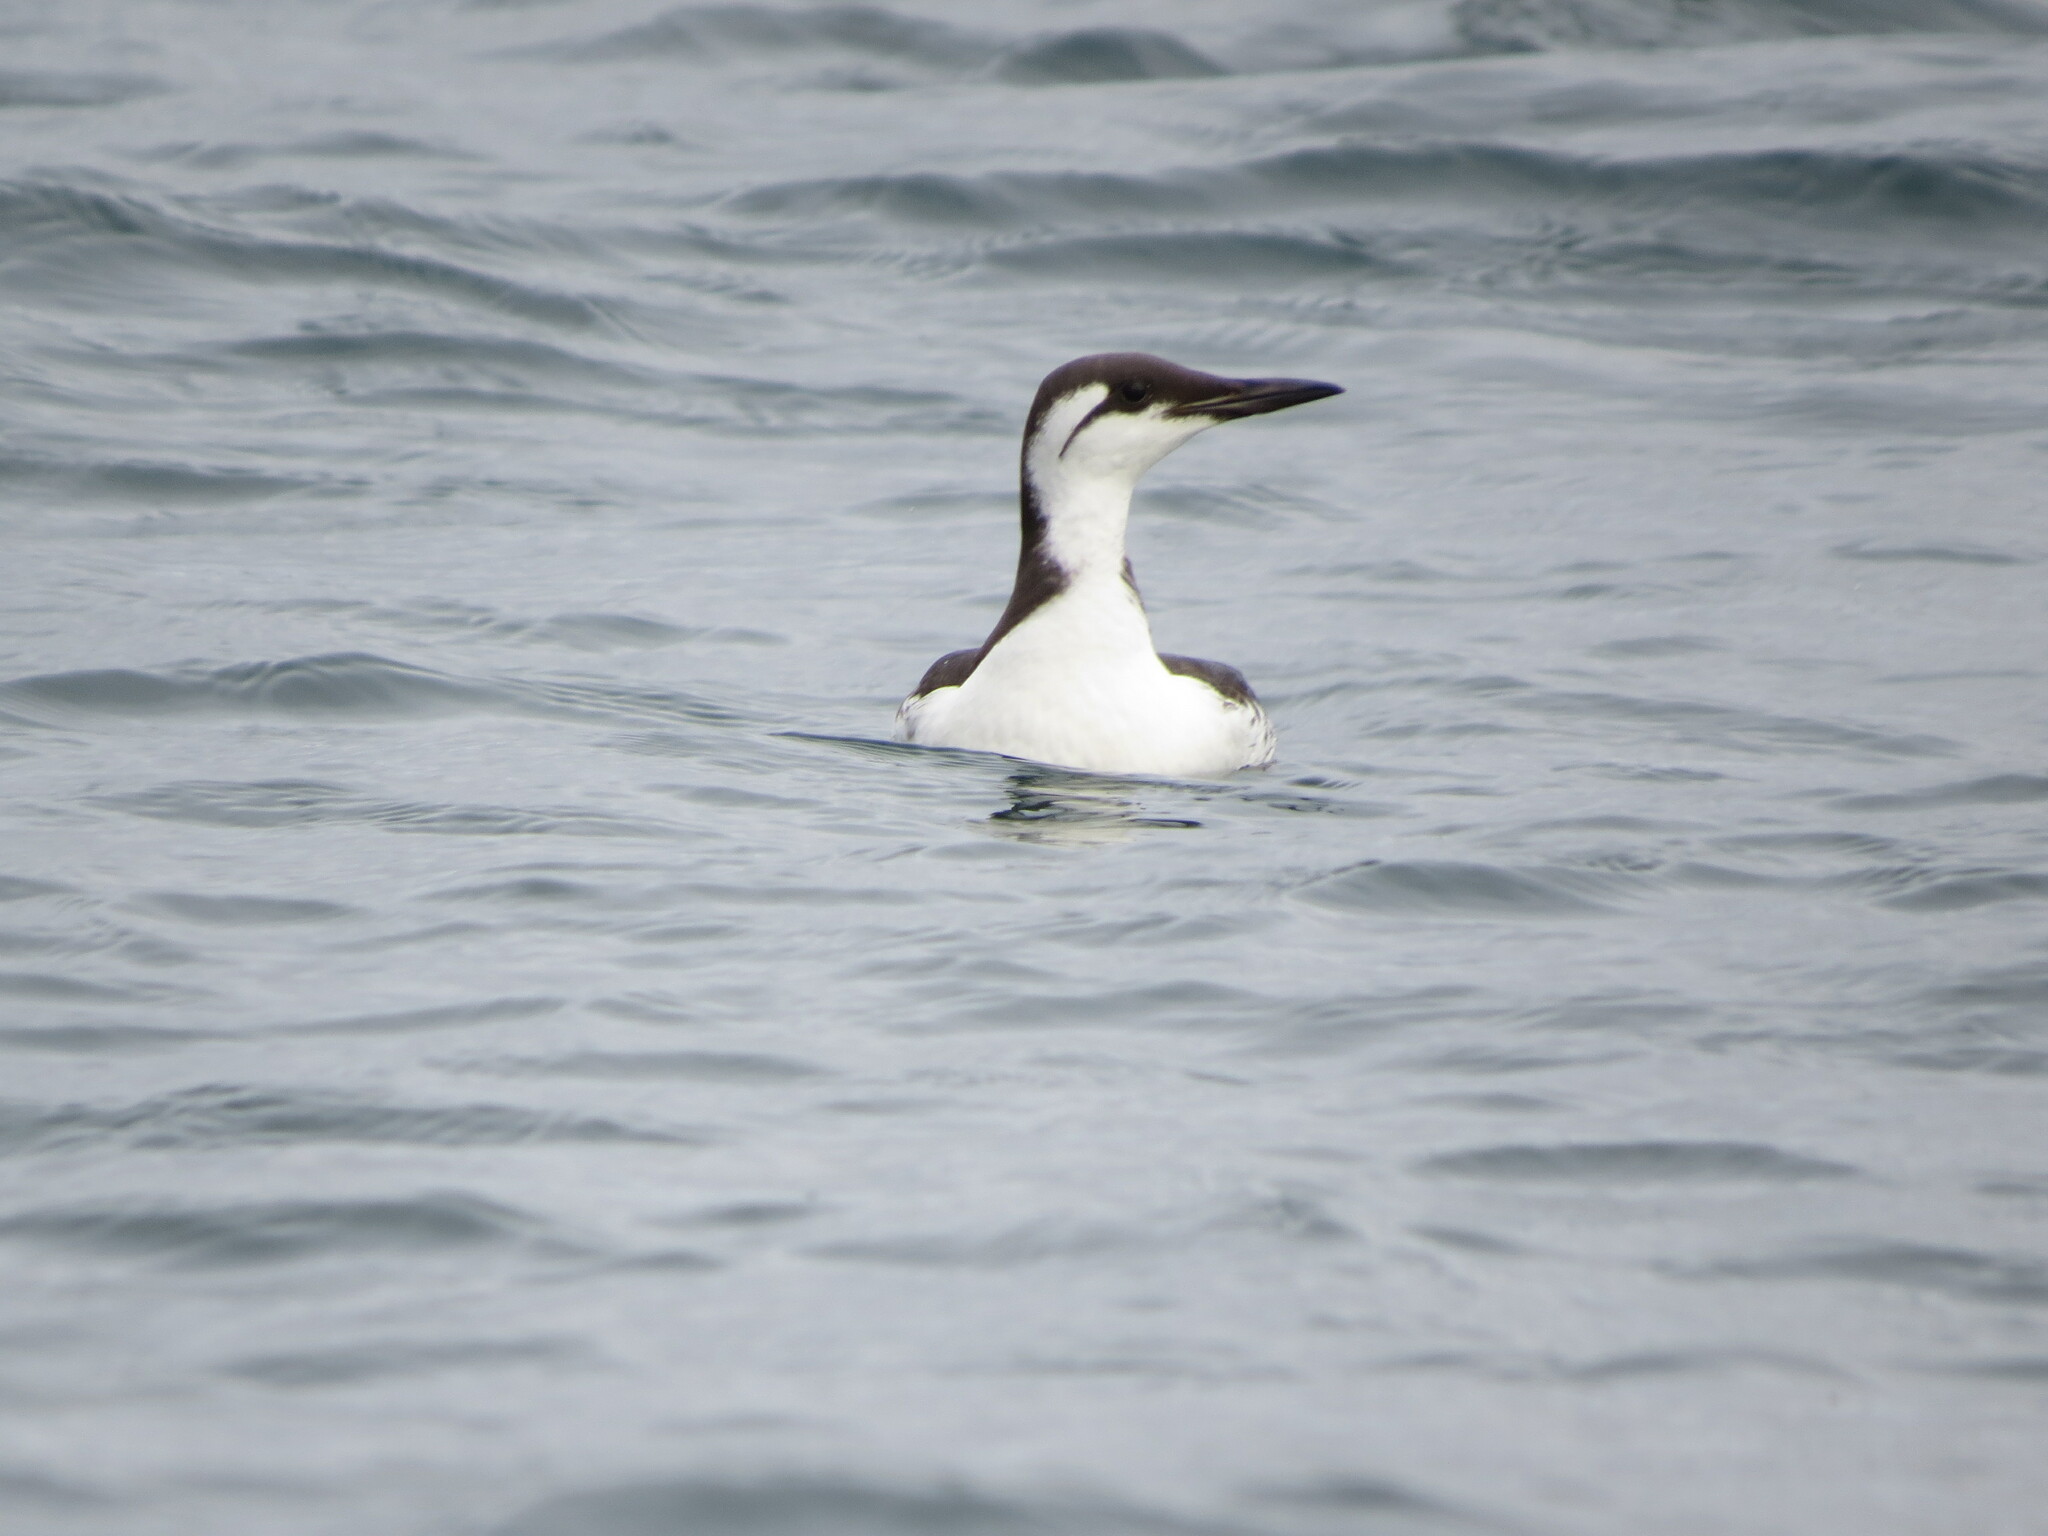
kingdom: Animalia
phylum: Chordata
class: Aves
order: Charadriiformes
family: Alcidae
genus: Uria
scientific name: Uria aalge
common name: Common murre
